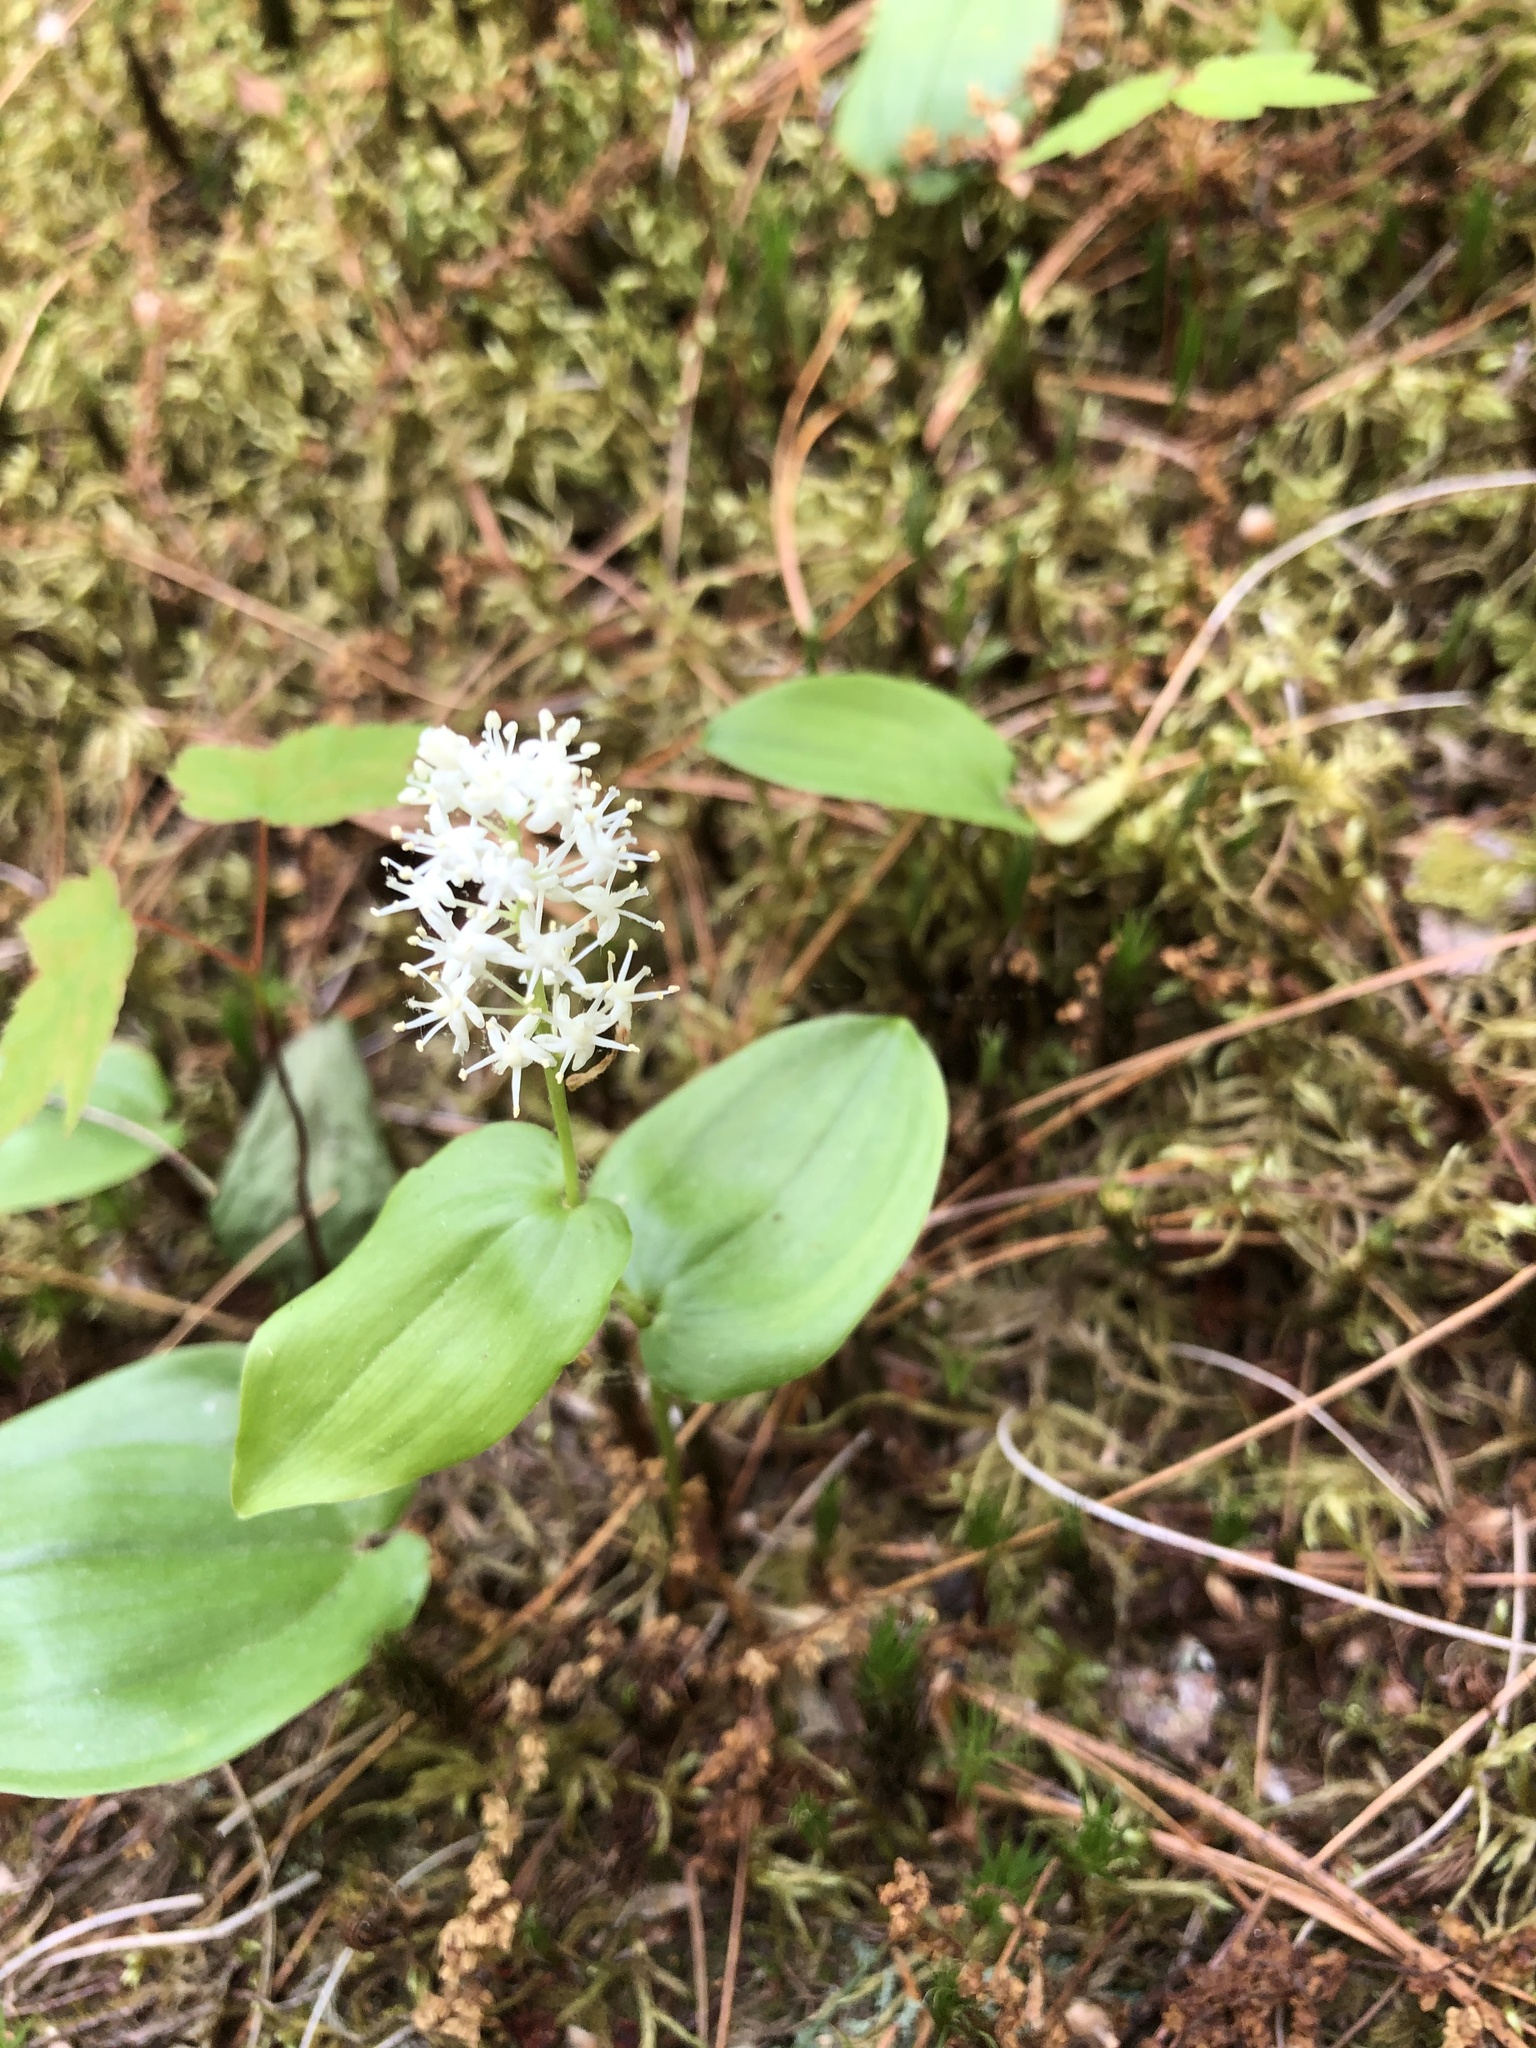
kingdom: Plantae
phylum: Tracheophyta
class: Liliopsida
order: Asparagales
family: Asparagaceae
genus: Maianthemum
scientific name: Maianthemum canadense
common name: False lily-of-the-valley
